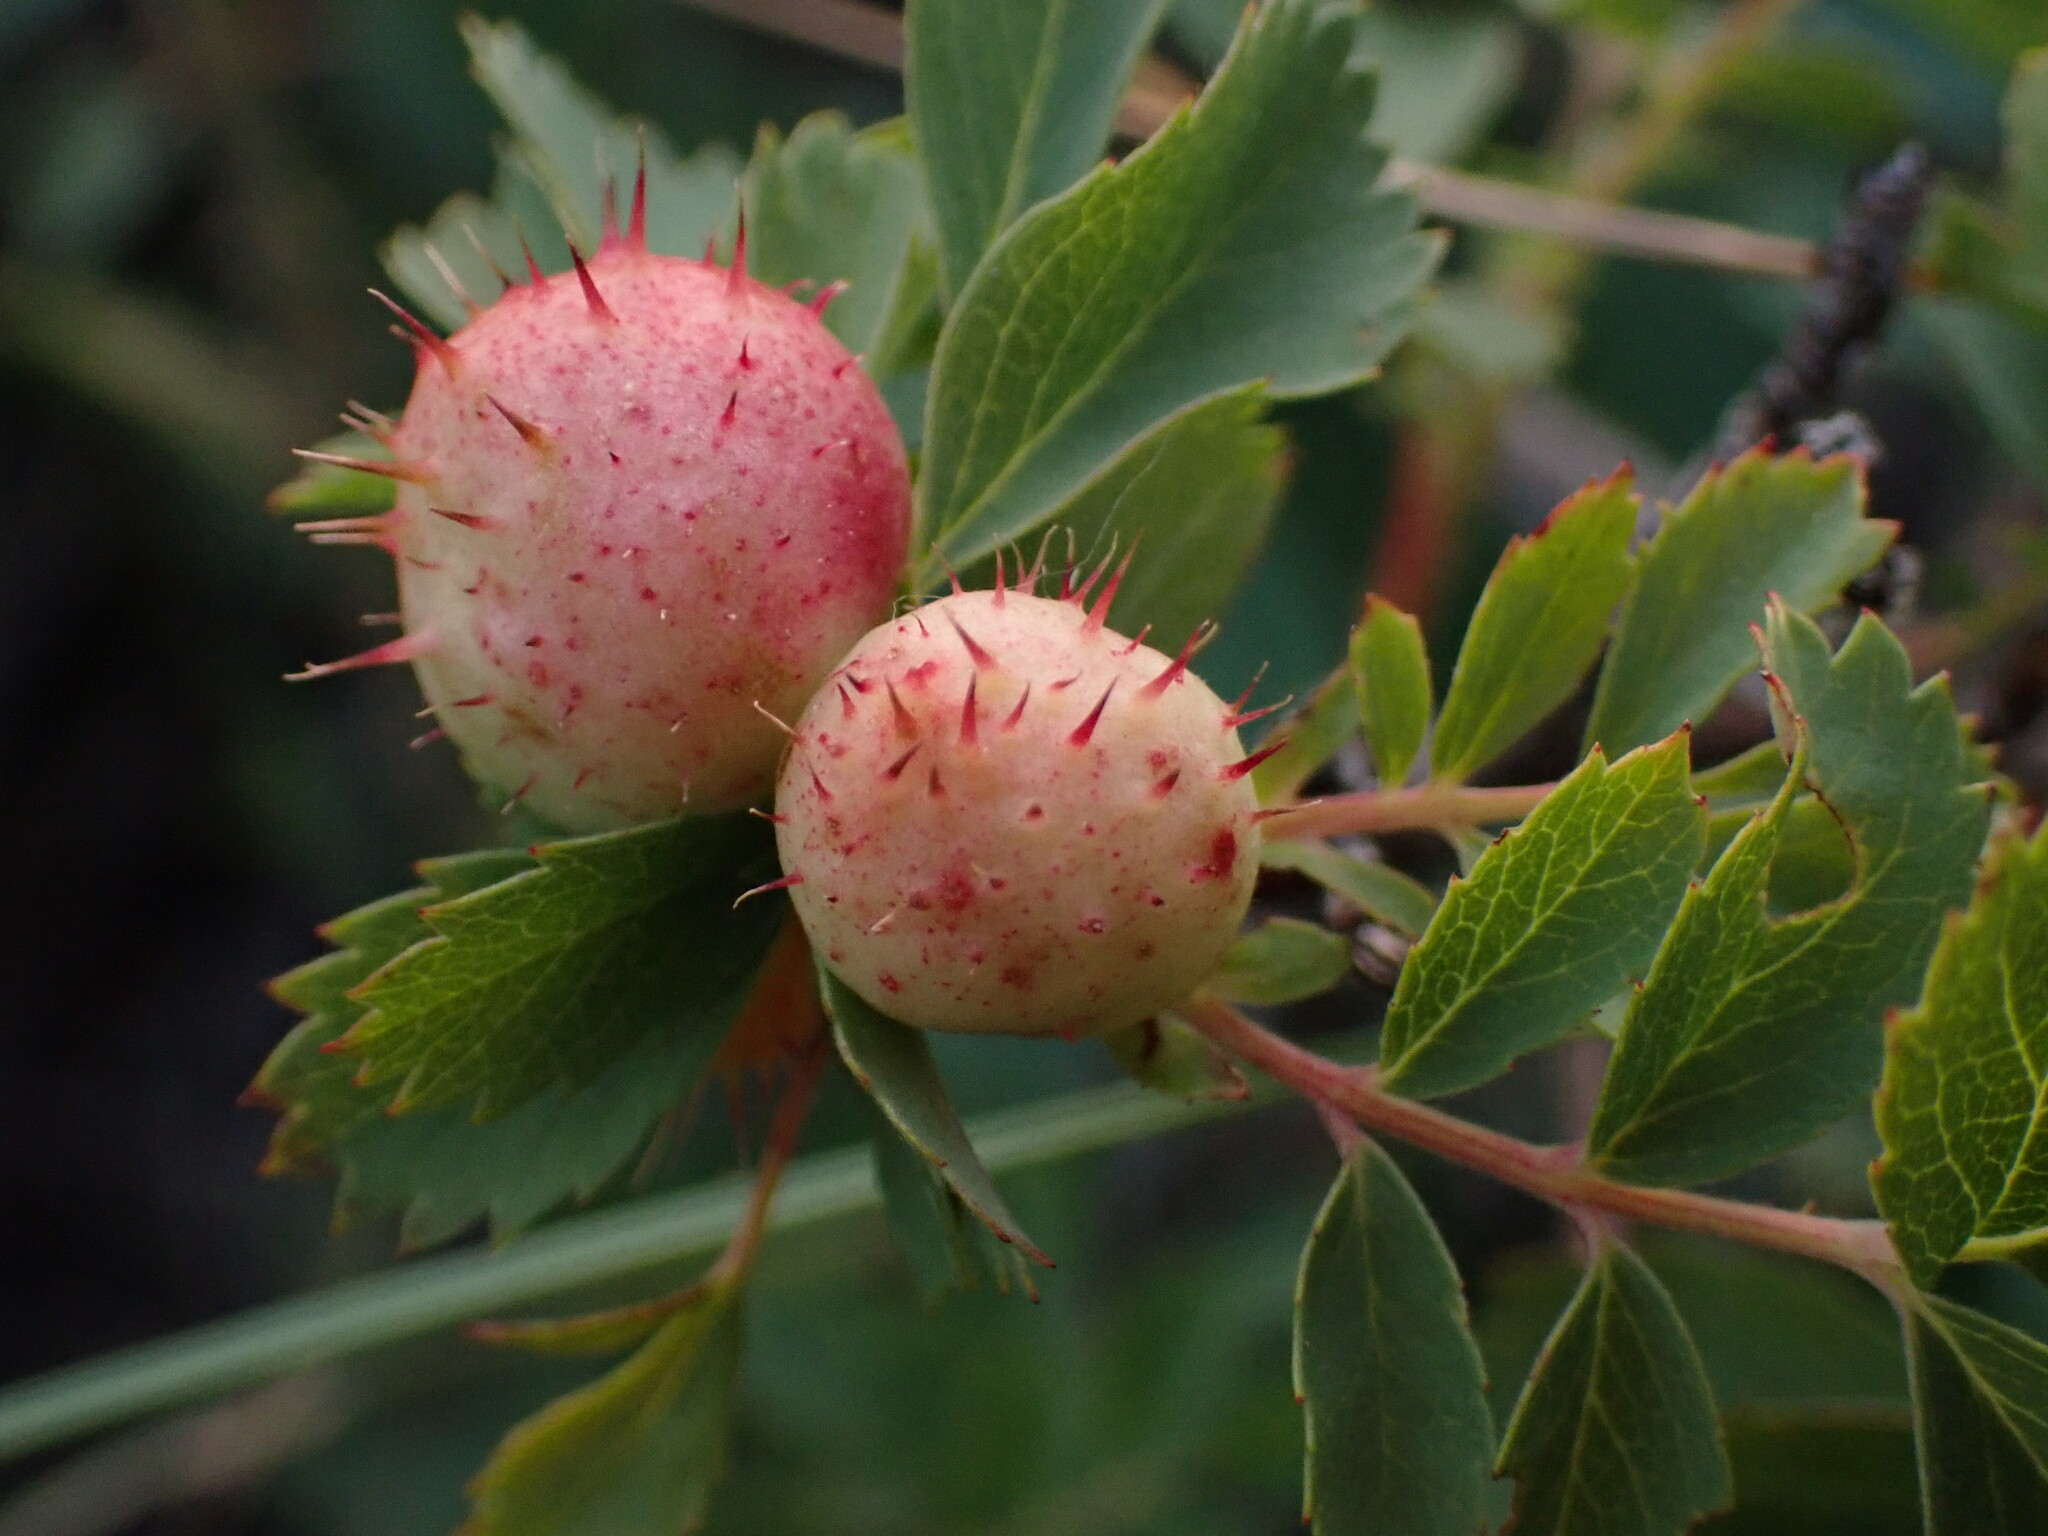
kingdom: Animalia
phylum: Arthropoda
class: Insecta
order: Hymenoptera
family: Cynipidae
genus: Diplolepis
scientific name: Diplolepis polita
